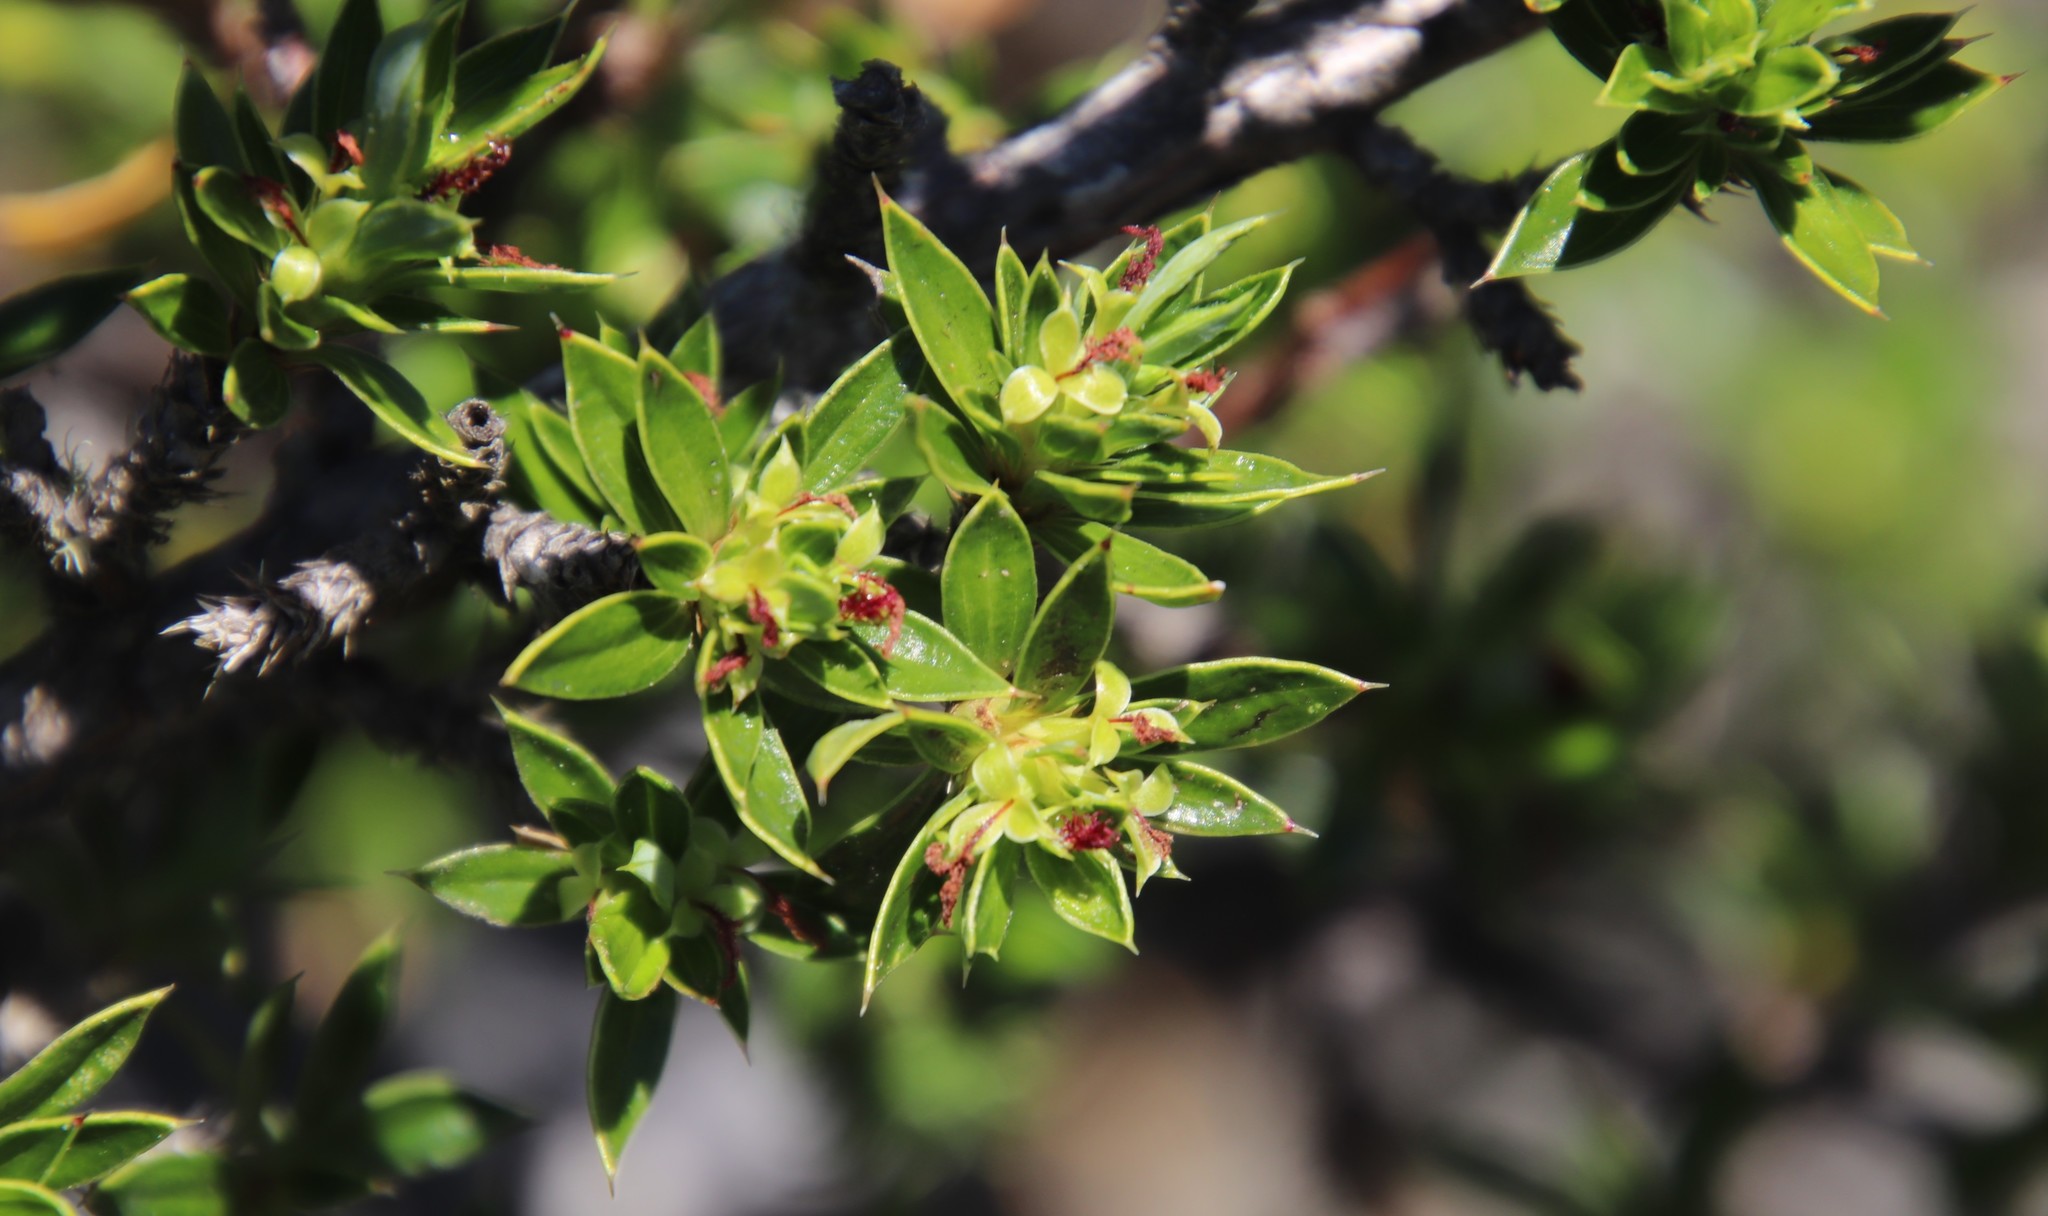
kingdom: Plantae
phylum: Tracheophyta
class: Magnoliopsida
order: Rosales
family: Rosaceae
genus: Cliffortia
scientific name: Cliffortia tridentata
